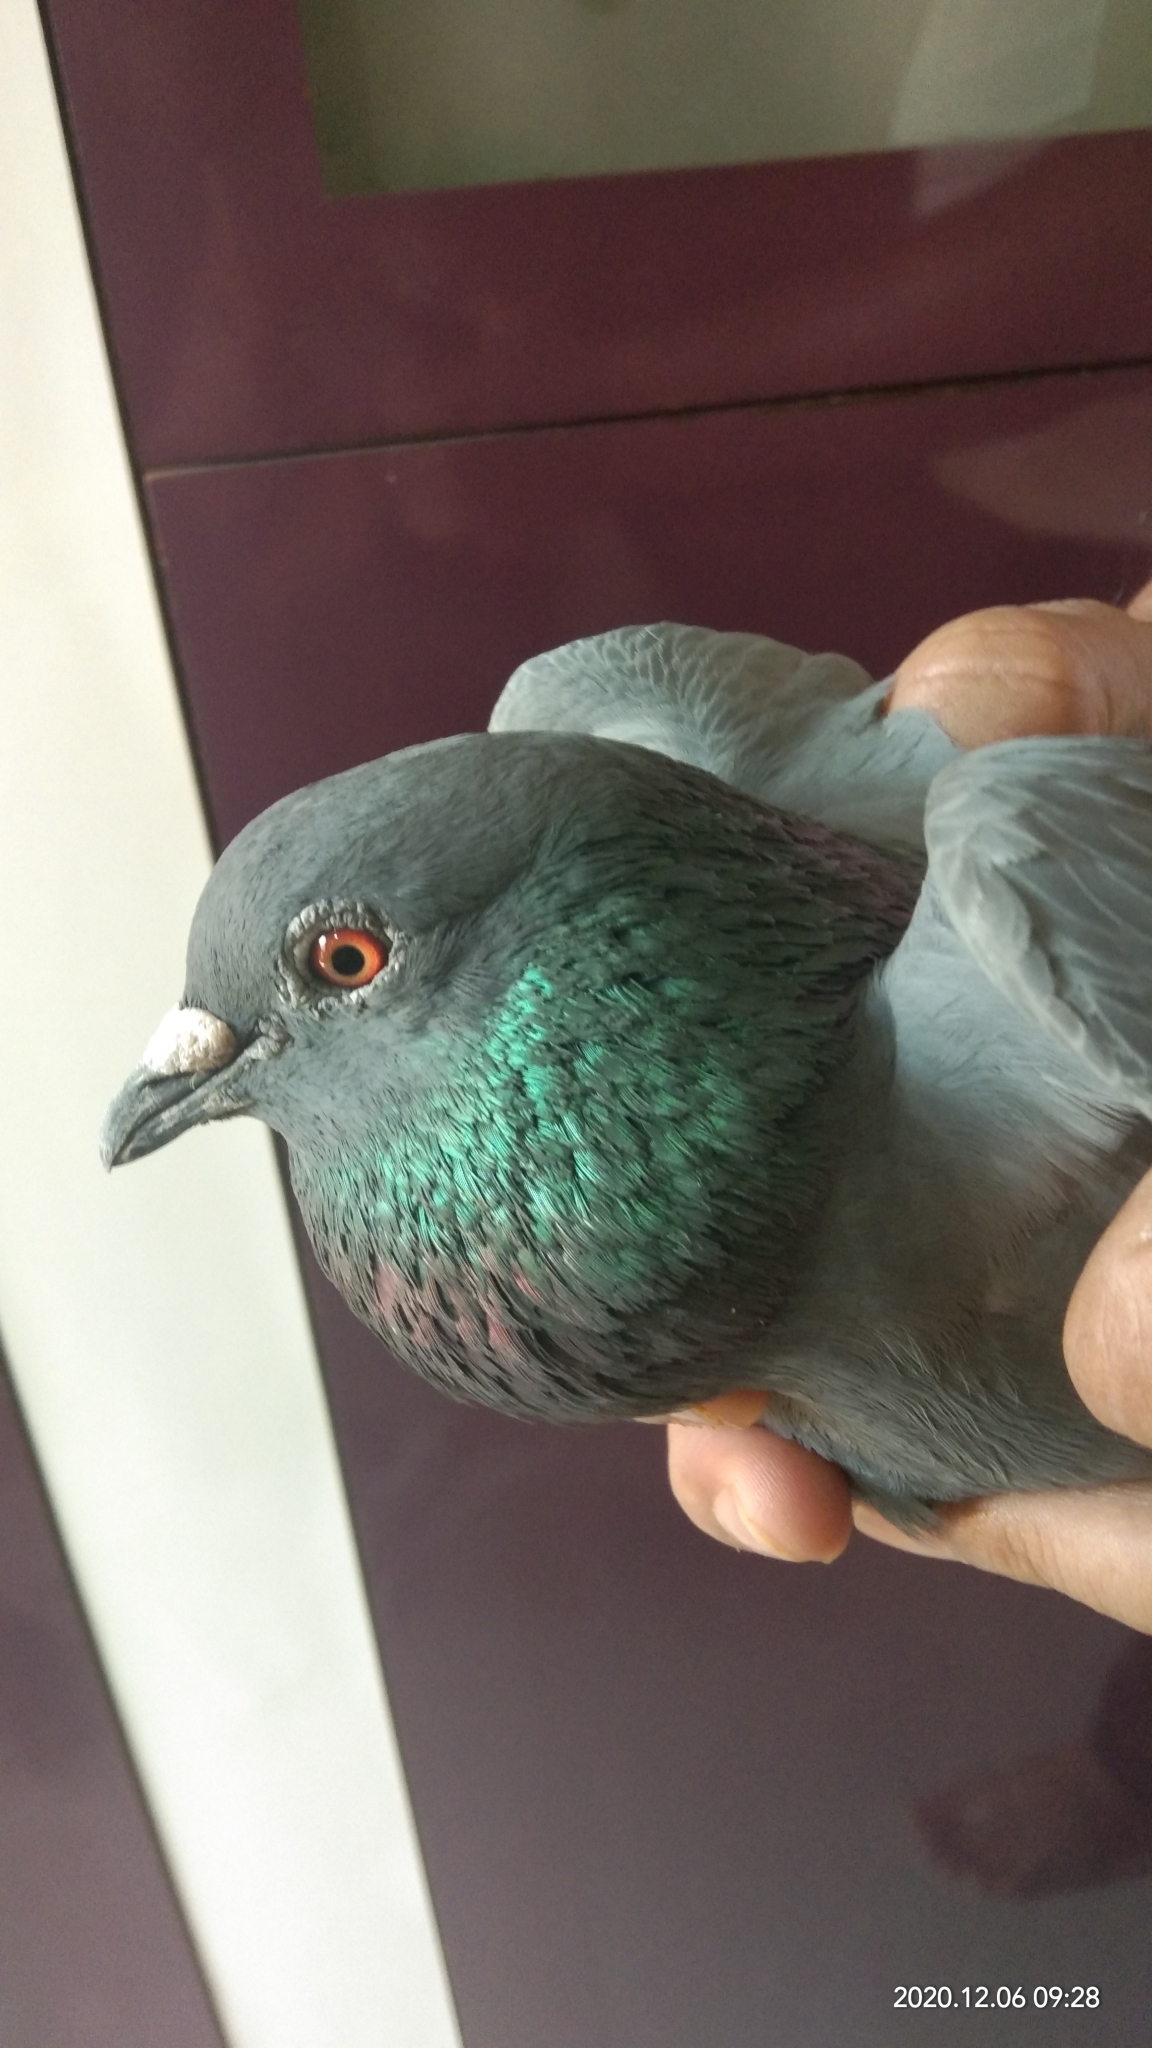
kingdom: Animalia
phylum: Chordata
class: Aves
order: Columbiformes
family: Columbidae
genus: Columba
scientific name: Columba livia
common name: Rock pigeon
